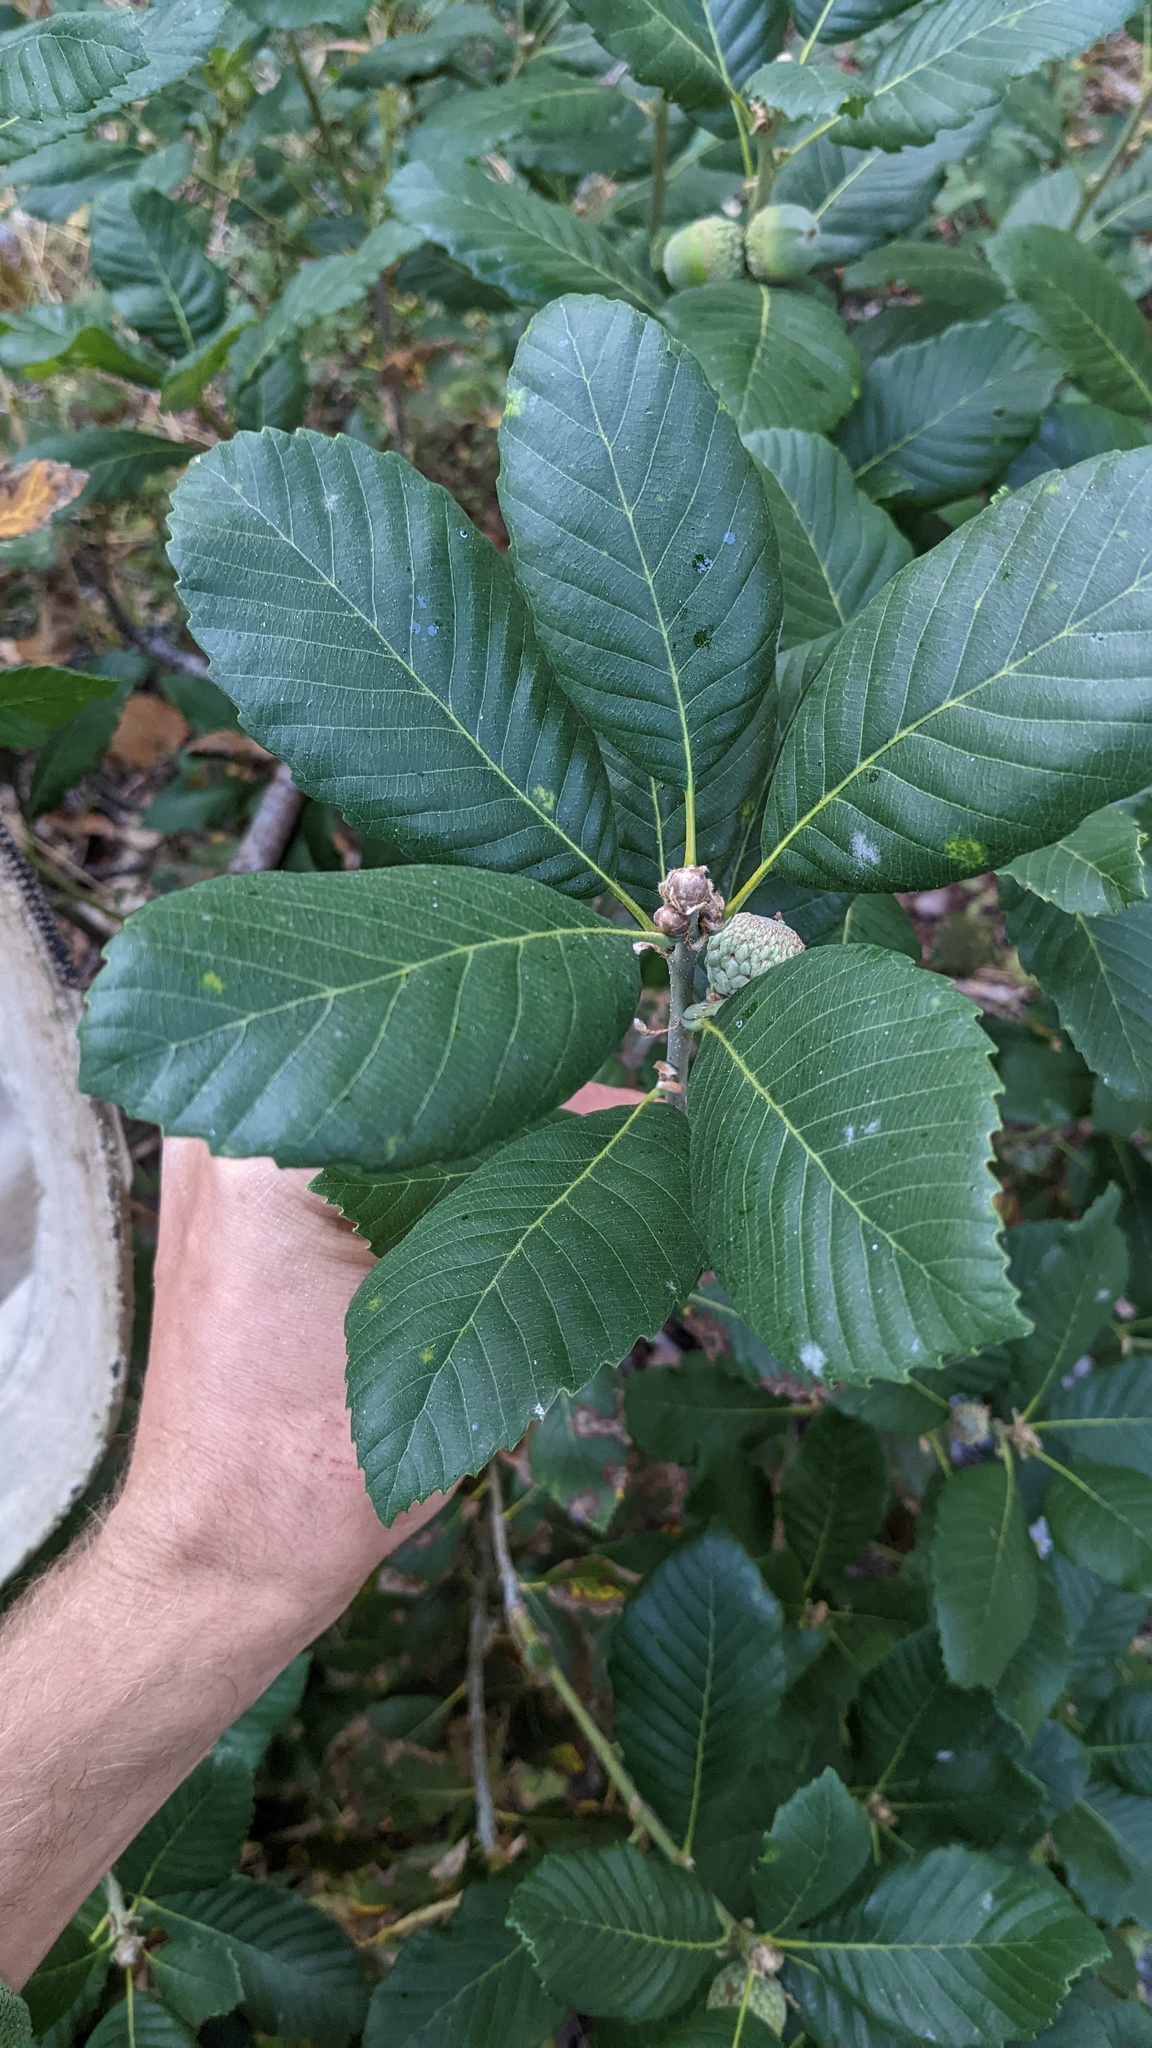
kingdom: Plantae
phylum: Tracheophyta
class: Magnoliopsida
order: Fagales
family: Fagaceae
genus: Quercus
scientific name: Quercus sadleriana
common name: Deer oak
